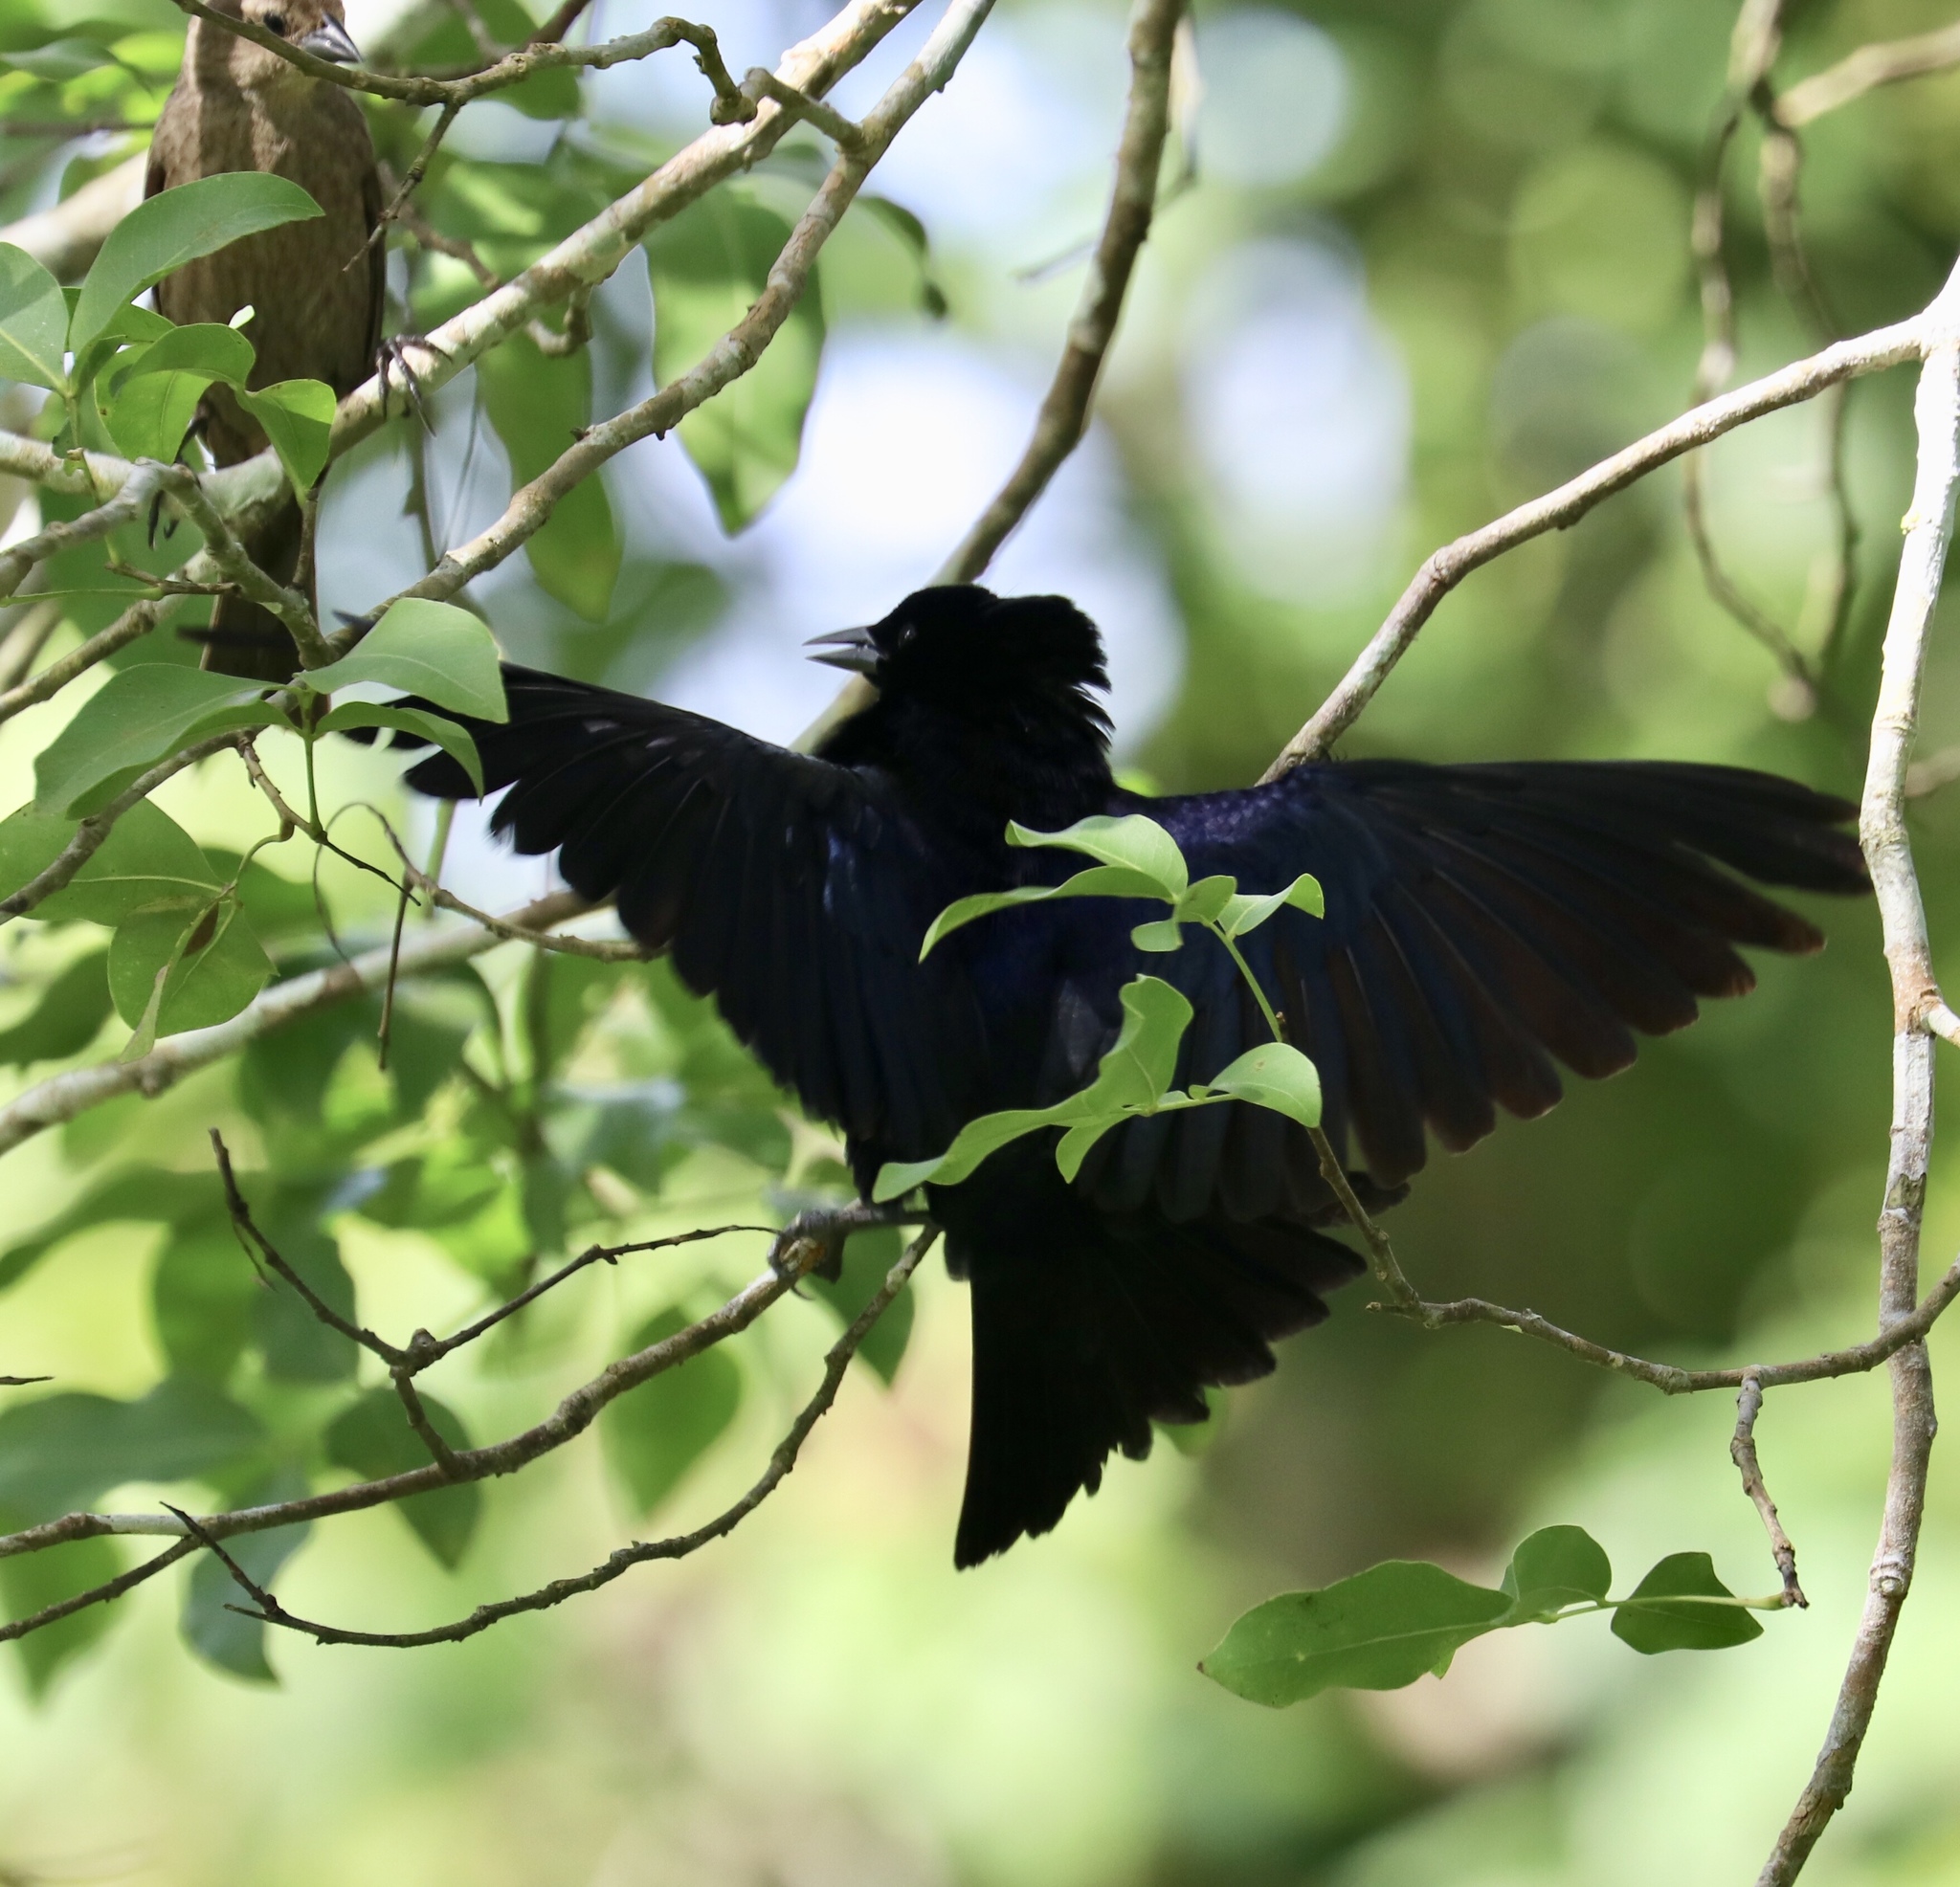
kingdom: Animalia
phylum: Chordata
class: Aves
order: Passeriformes
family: Icteridae
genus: Molothrus
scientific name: Molothrus bonariensis
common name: Shiny cowbird
